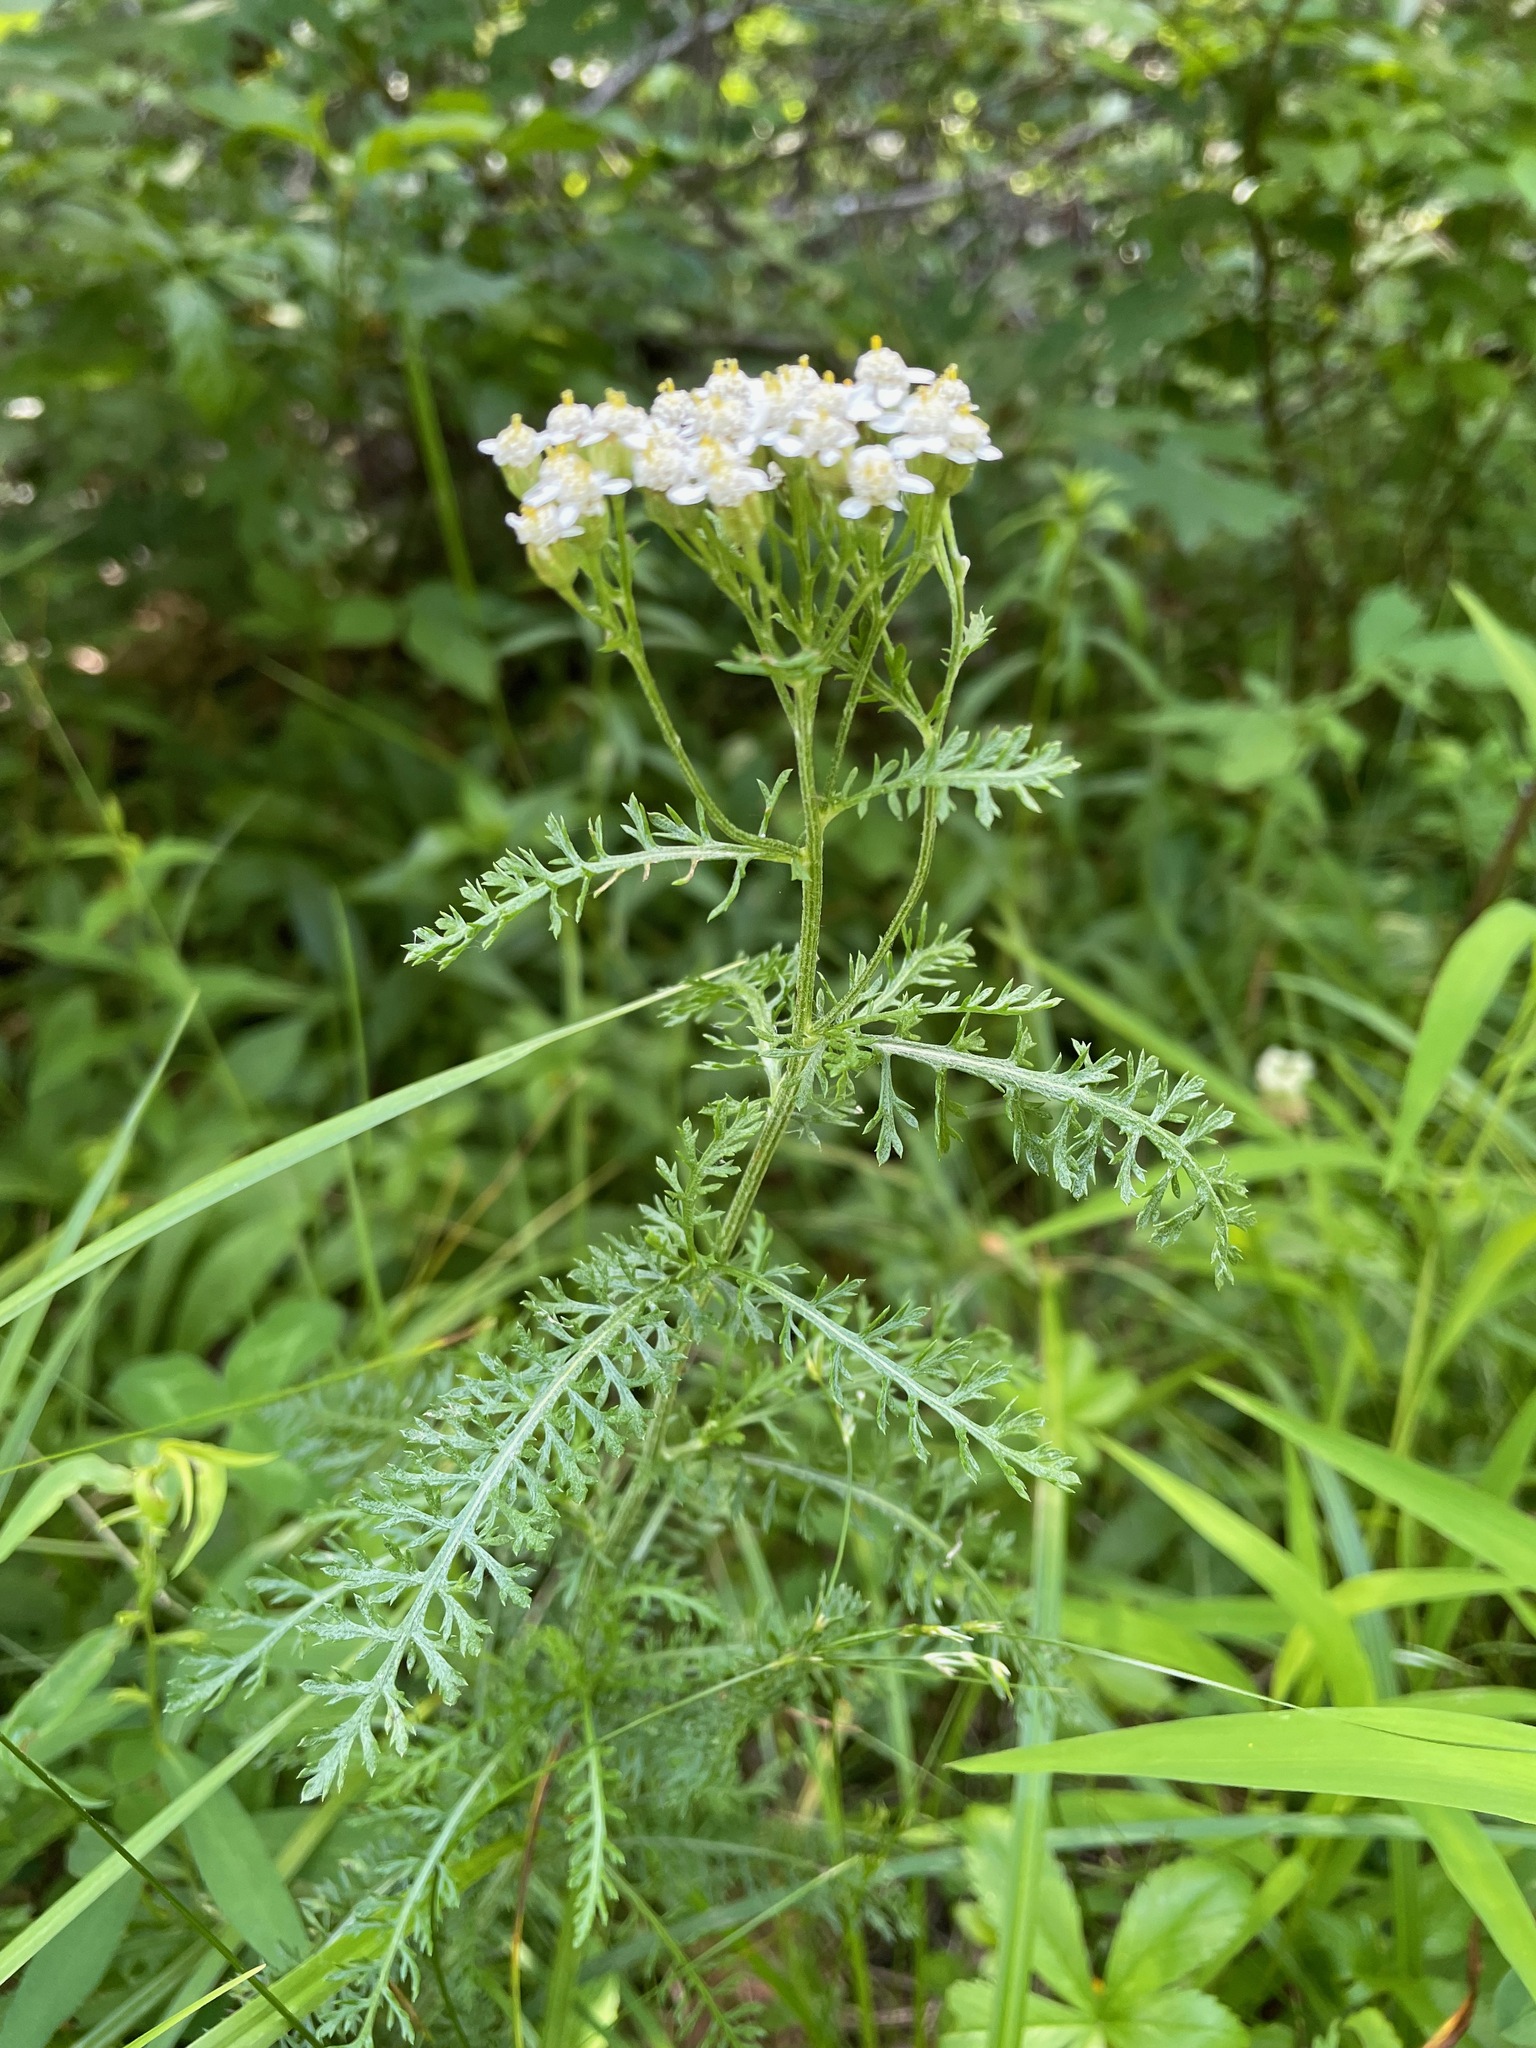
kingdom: Plantae
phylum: Tracheophyta
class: Magnoliopsida
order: Asterales
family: Asteraceae
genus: Achillea
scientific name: Achillea millefolium
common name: Yarrow
